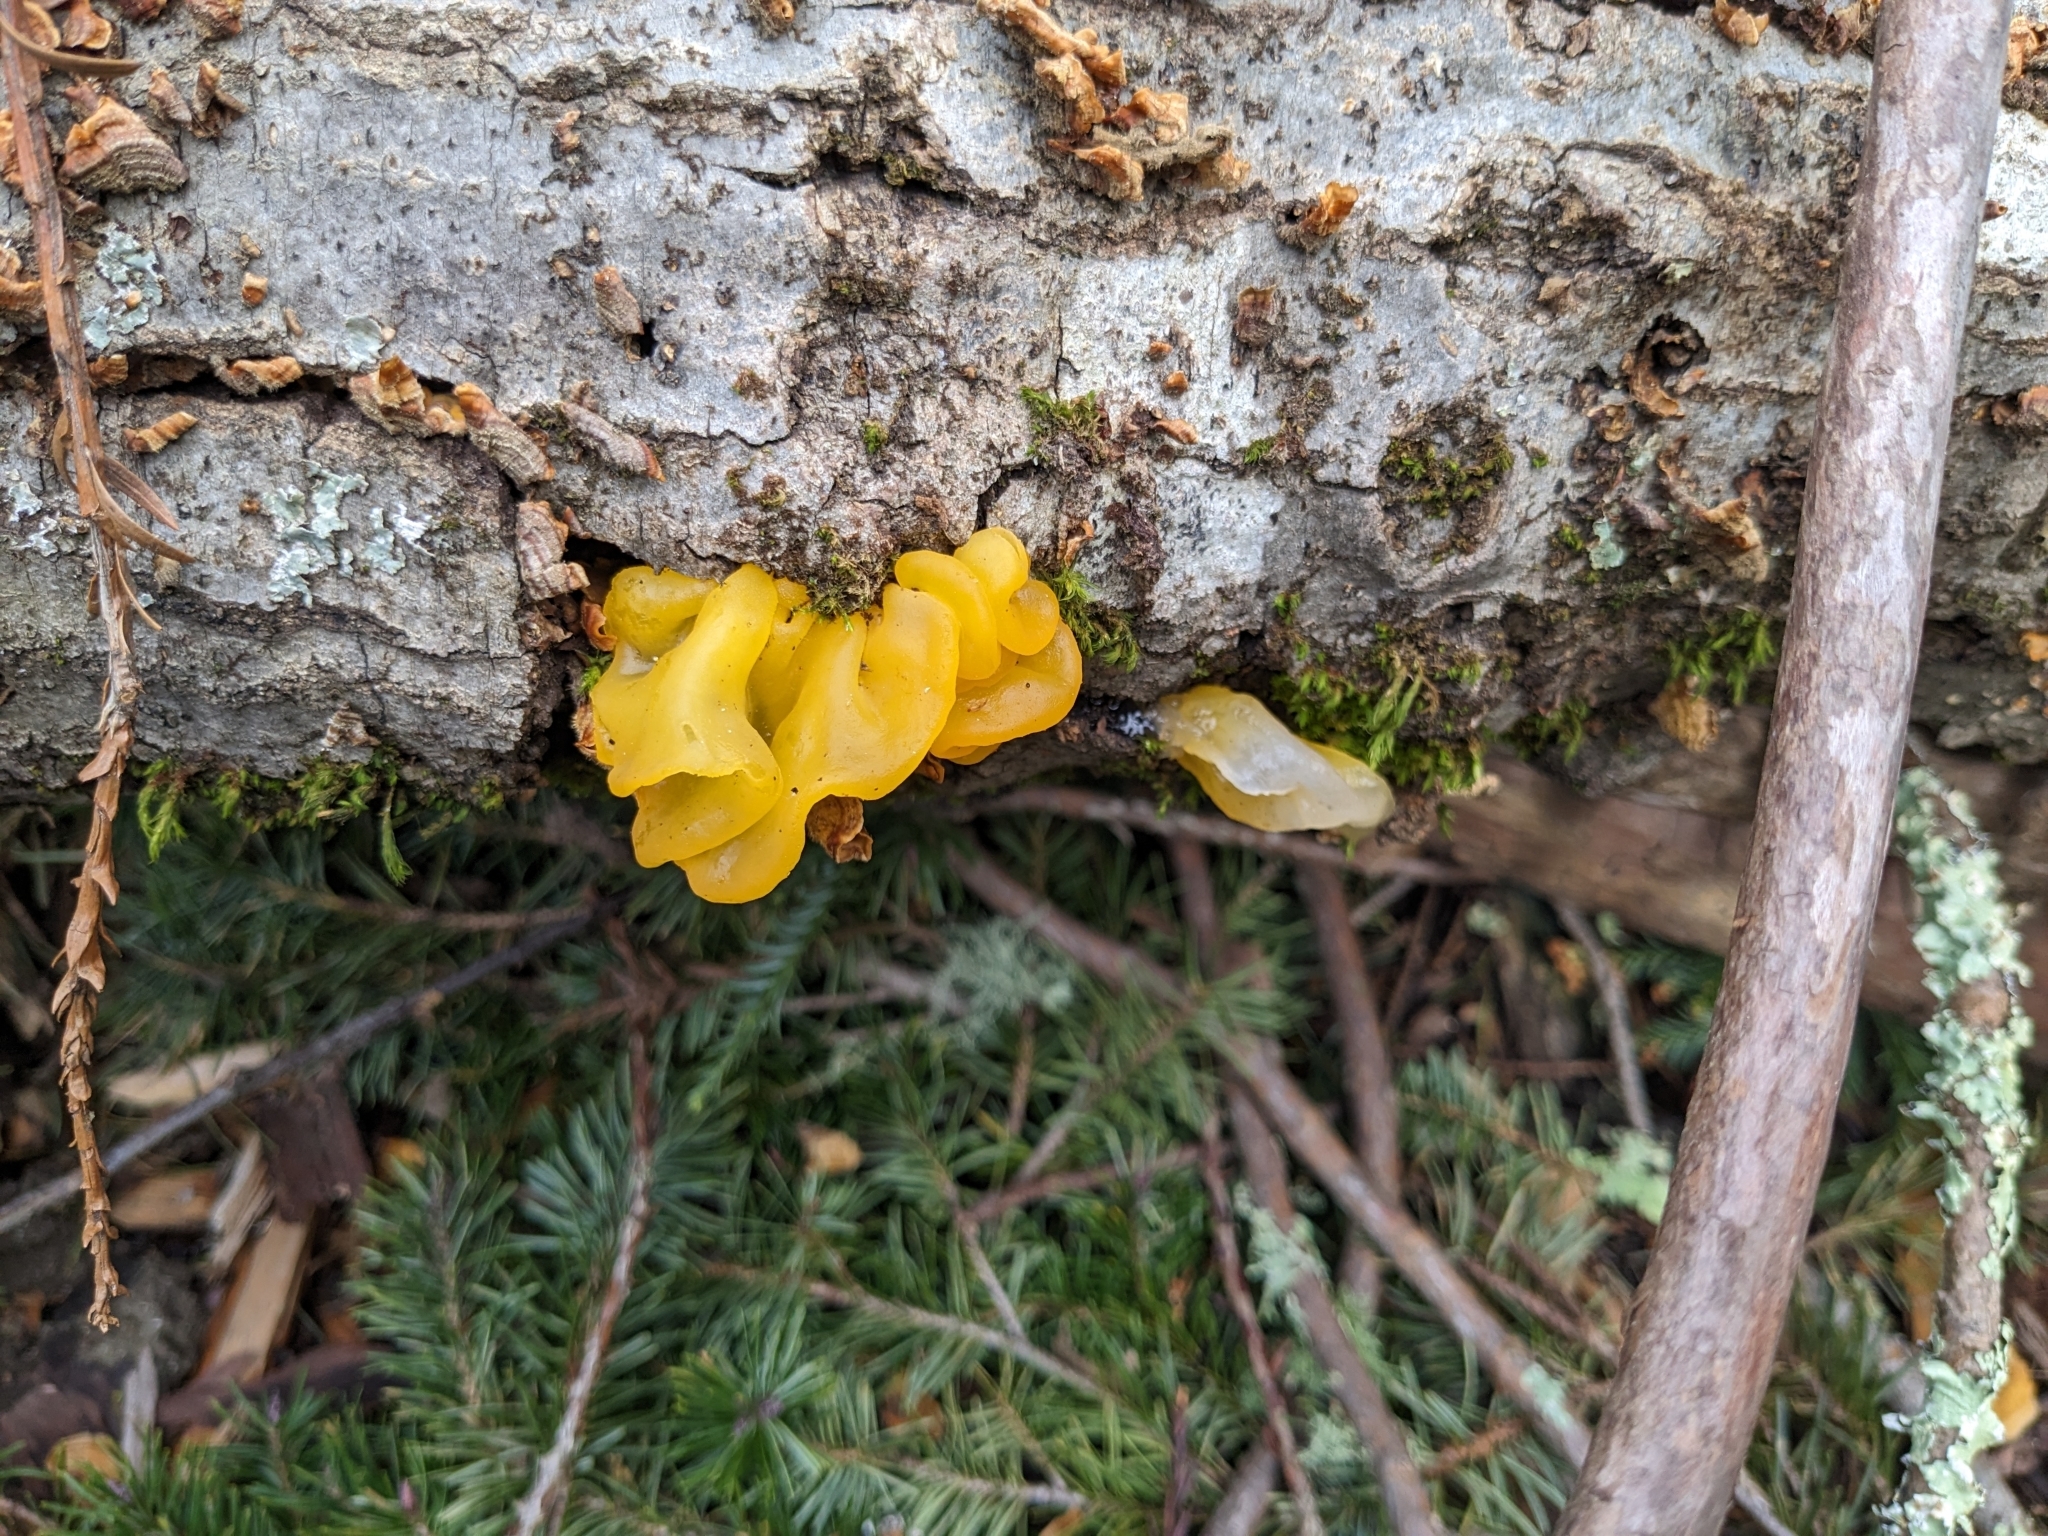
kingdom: Fungi
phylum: Basidiomycota
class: Tremellomycetes
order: Tremellales
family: Naemateliaceae
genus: Naematelia
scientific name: Naematelia aurantia
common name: Golden ear
